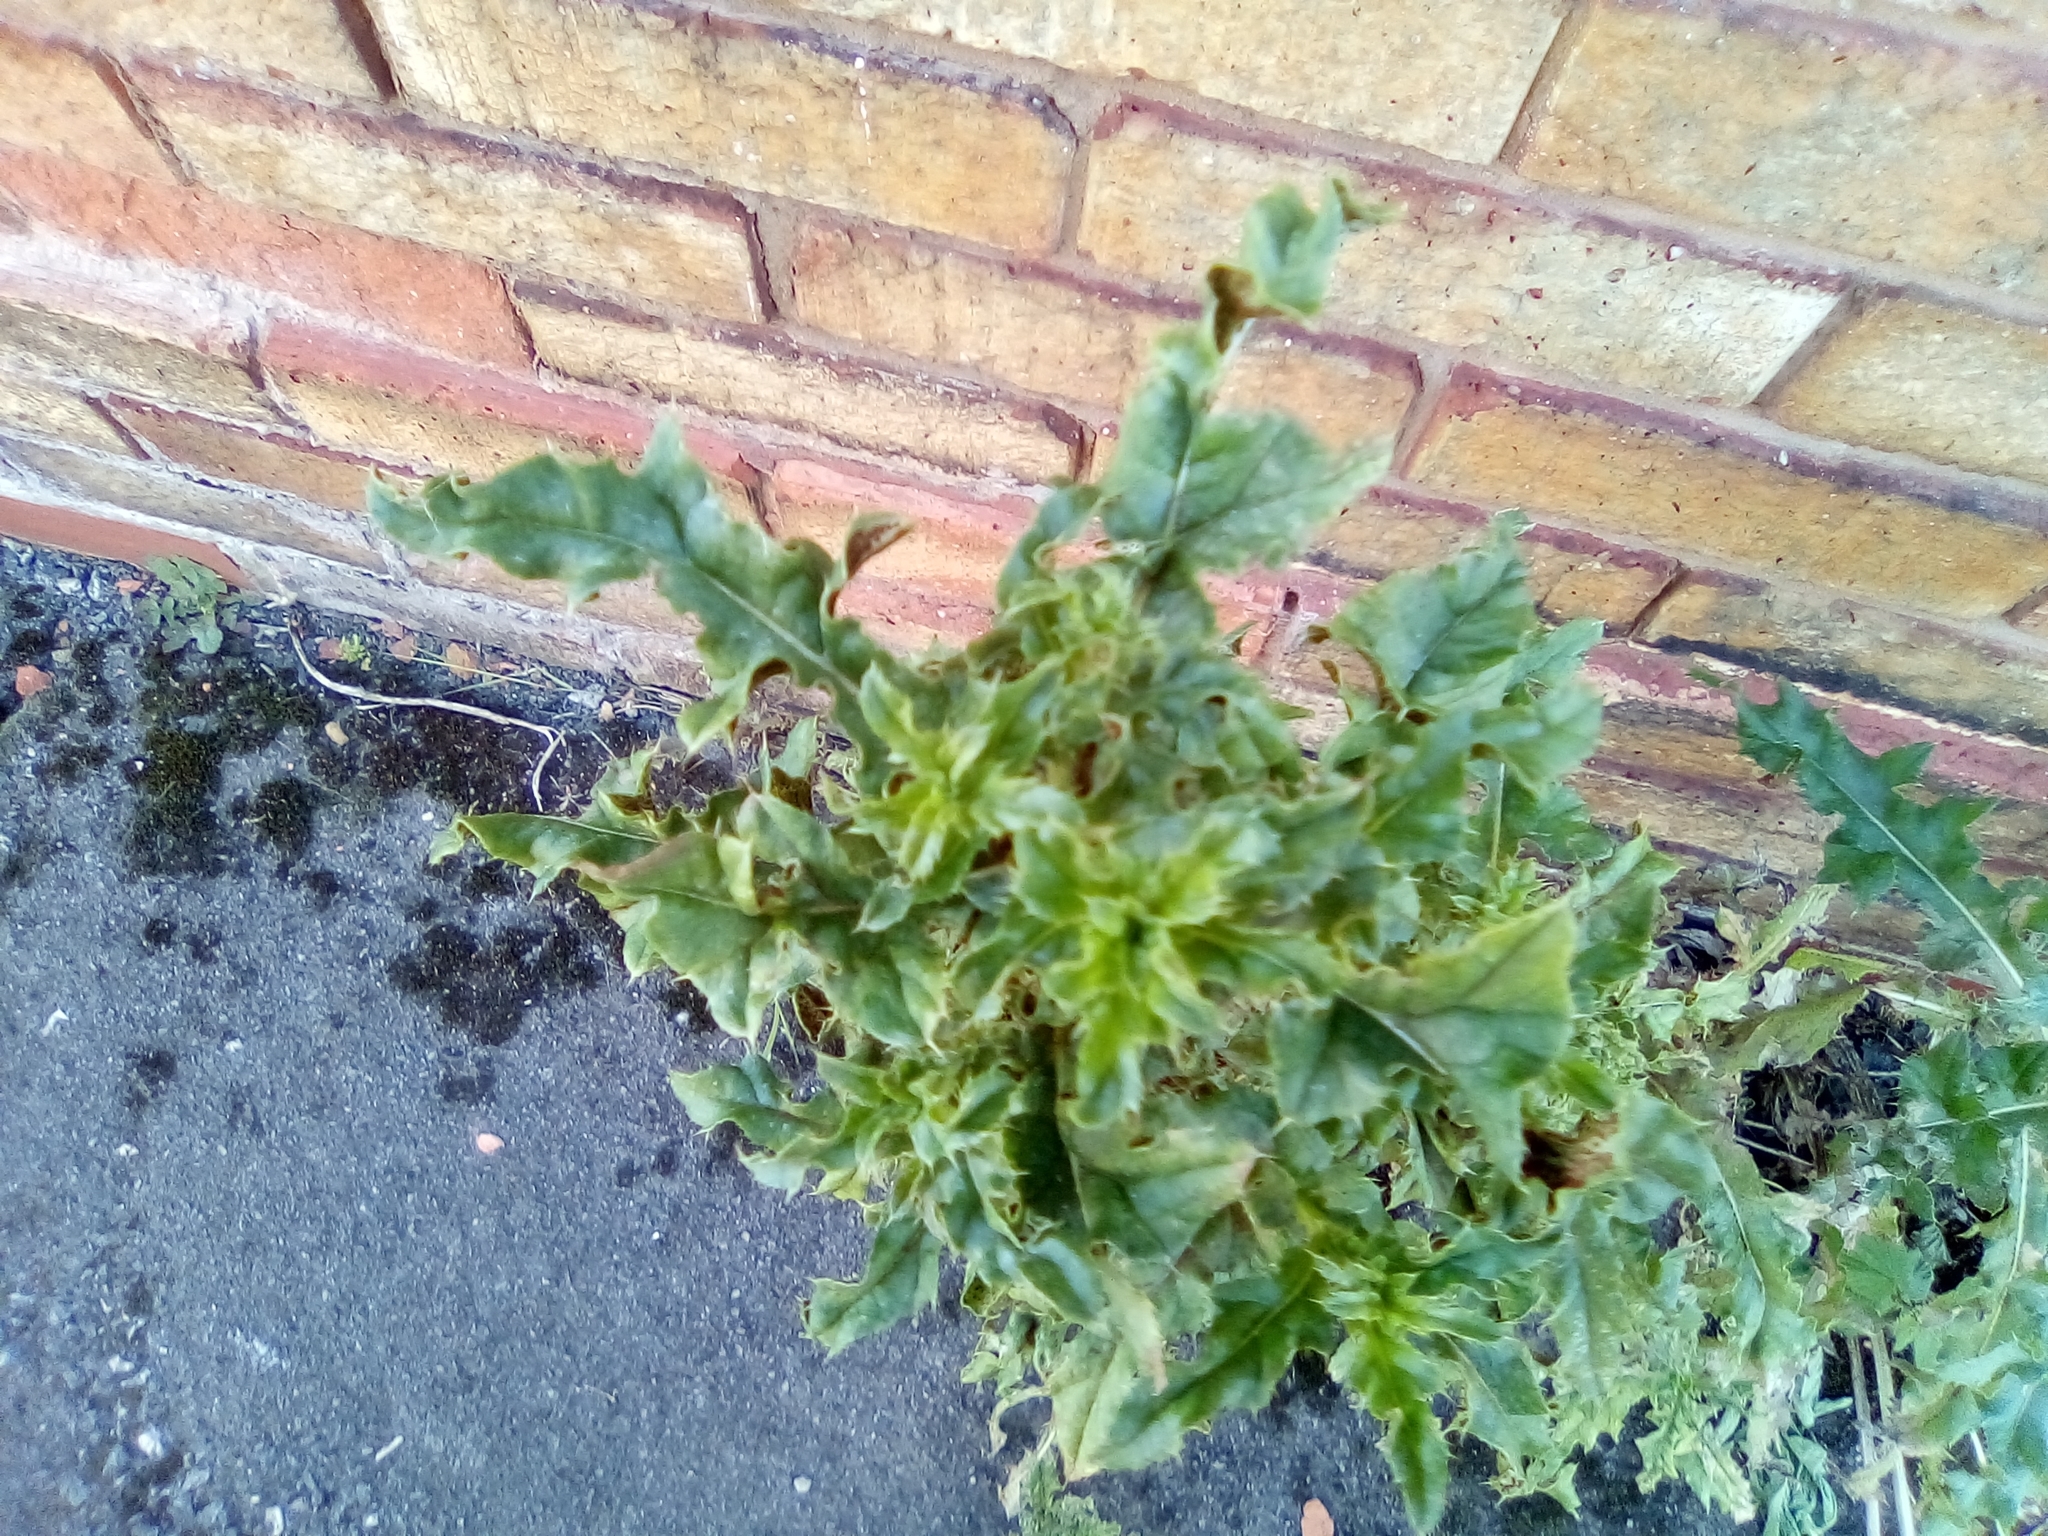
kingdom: Plantae
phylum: Tracheophyta
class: Magnoliopsida
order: Asterales
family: Asteraceae
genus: Cirsium
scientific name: Cirsium arvense
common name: Creeping thistle
